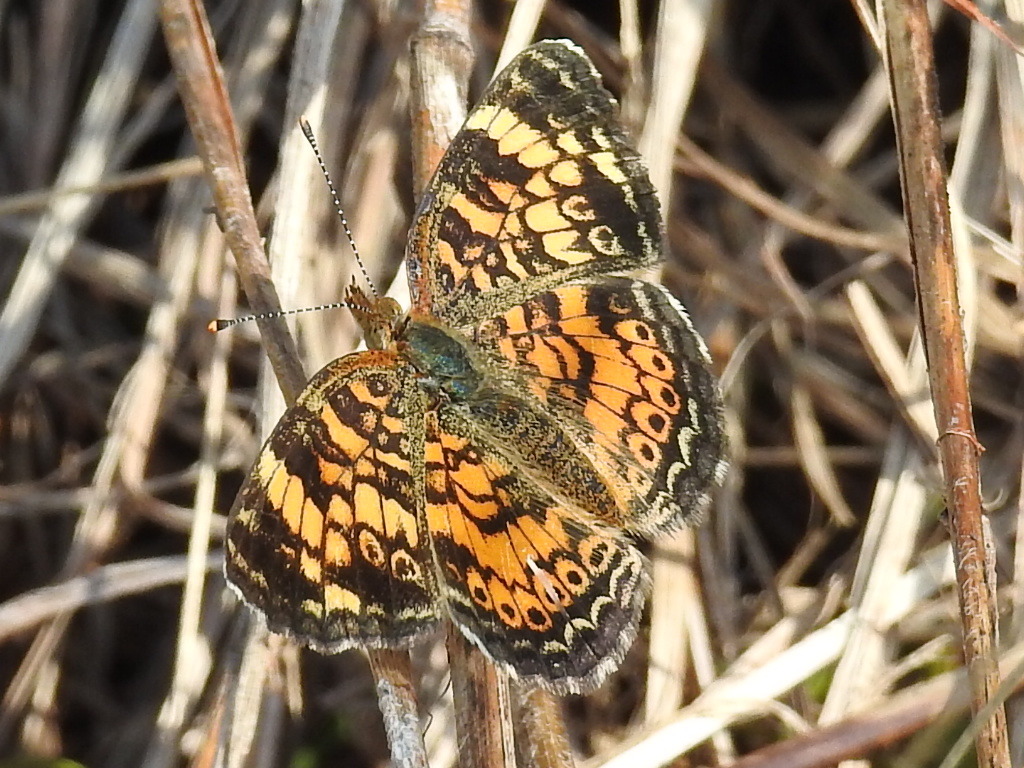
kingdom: Animalia
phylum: Arthropoda
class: Insecta
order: Lepidoptera
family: Nymphalidae
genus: Phyciodes
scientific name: Phyciodes tharos
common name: Pearl crescent
